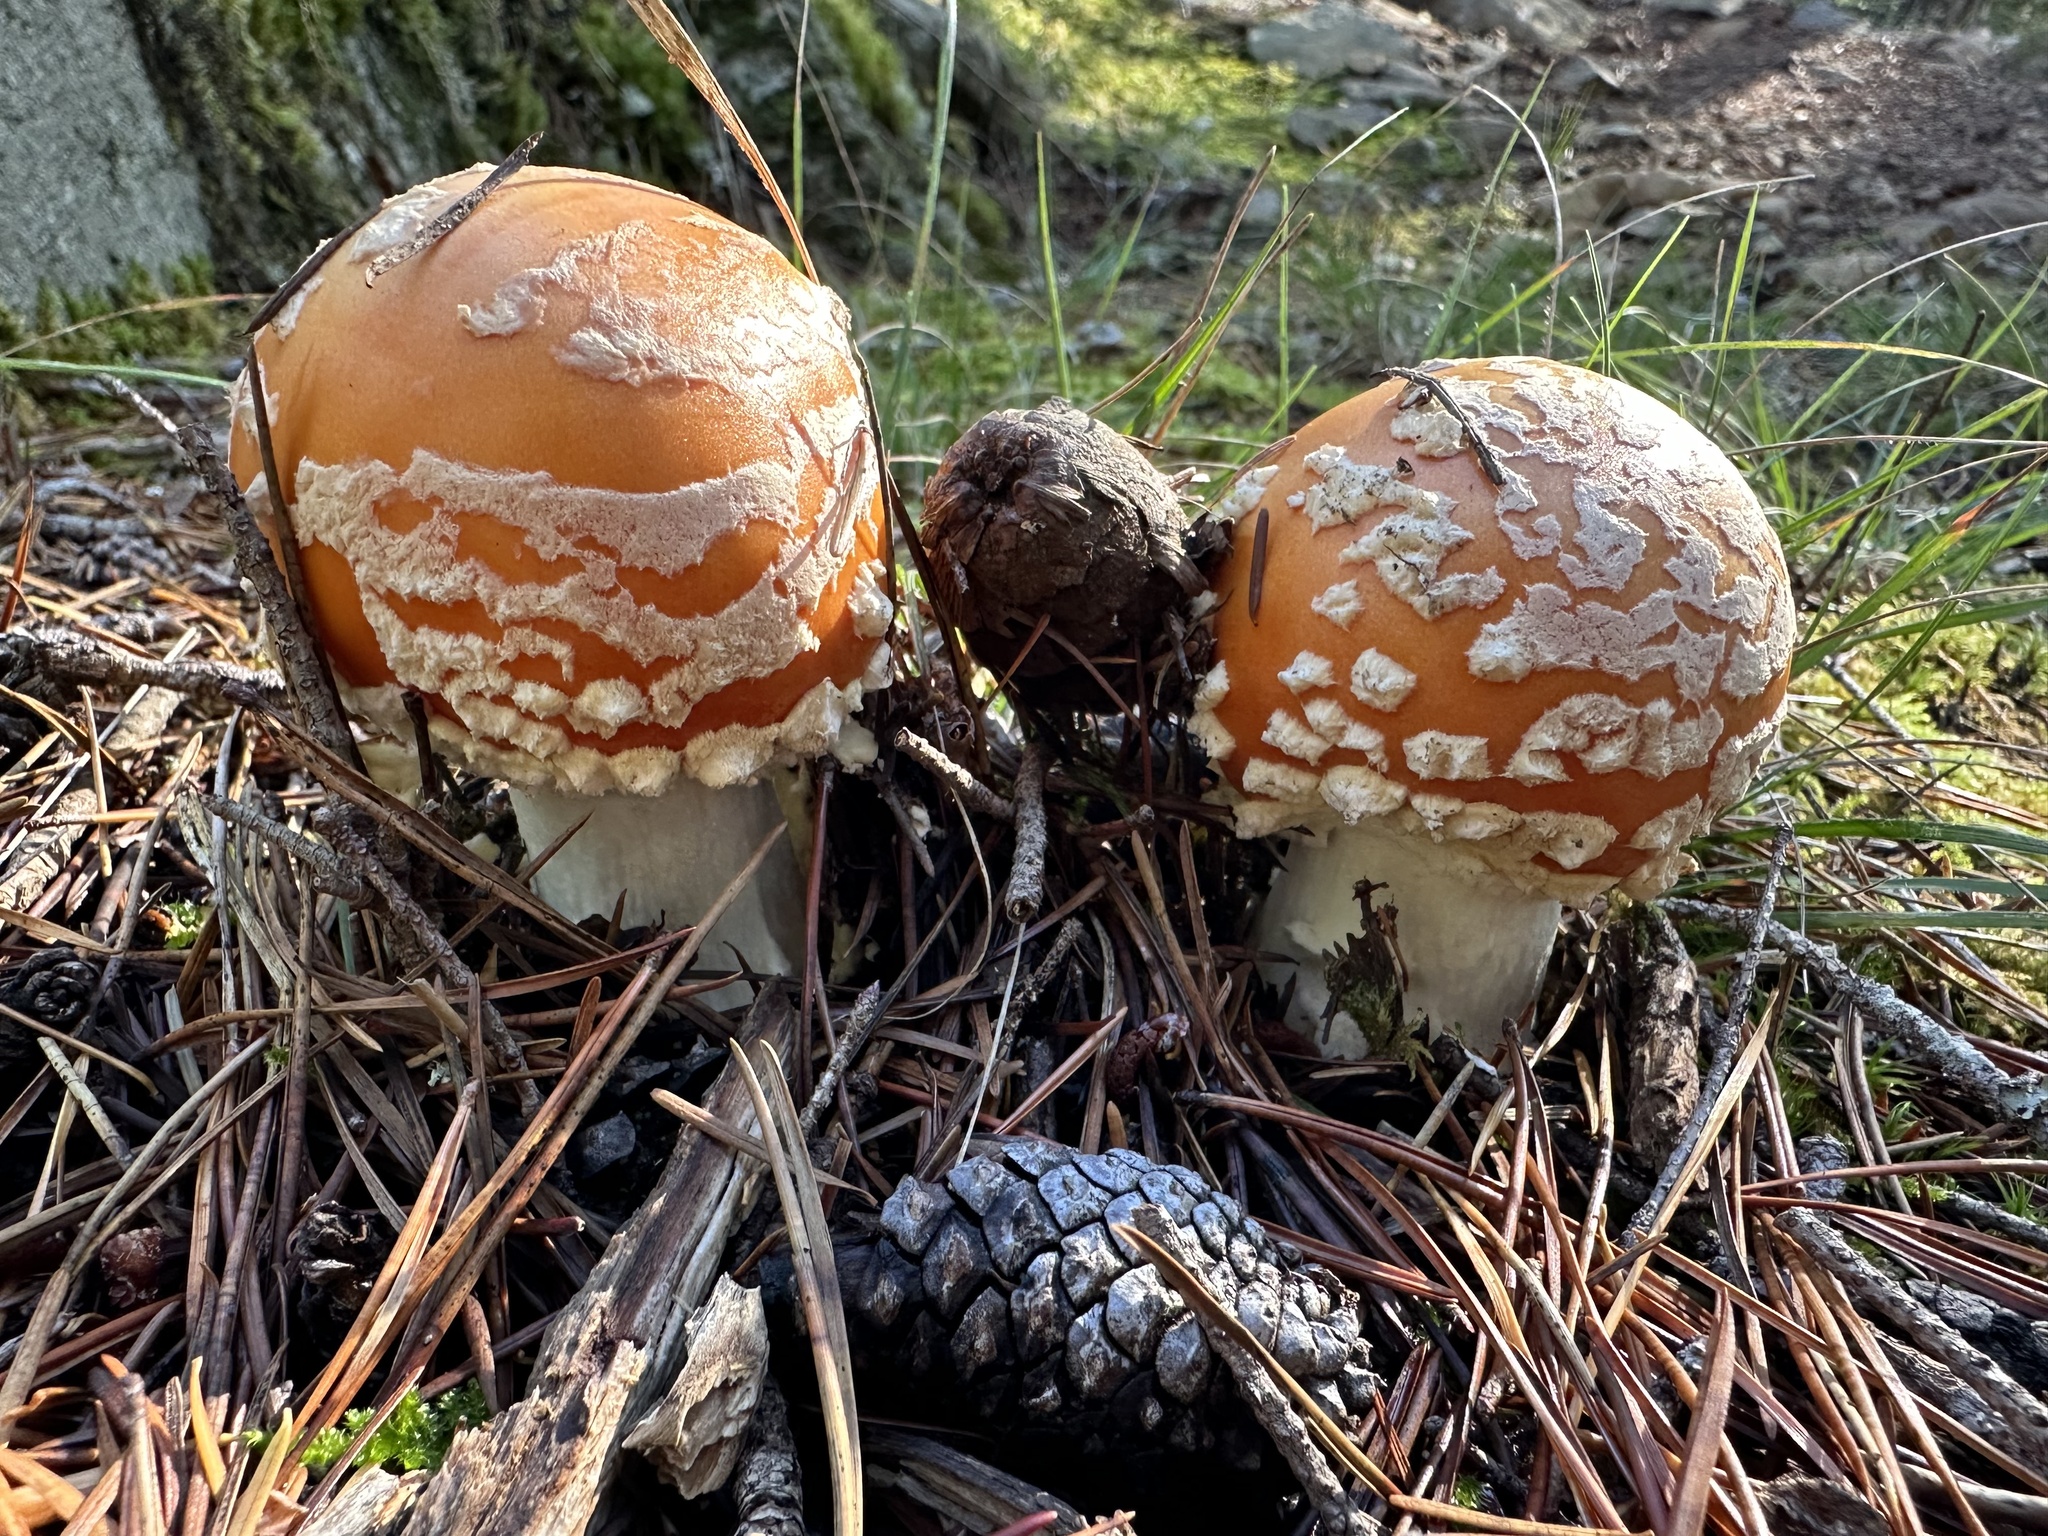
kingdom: Fungi
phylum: Basidiomycota
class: Agaricomycetes
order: Agaricales
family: Amanitaceae
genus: Amanita
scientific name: Amanita muscaria
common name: Fly agaric
